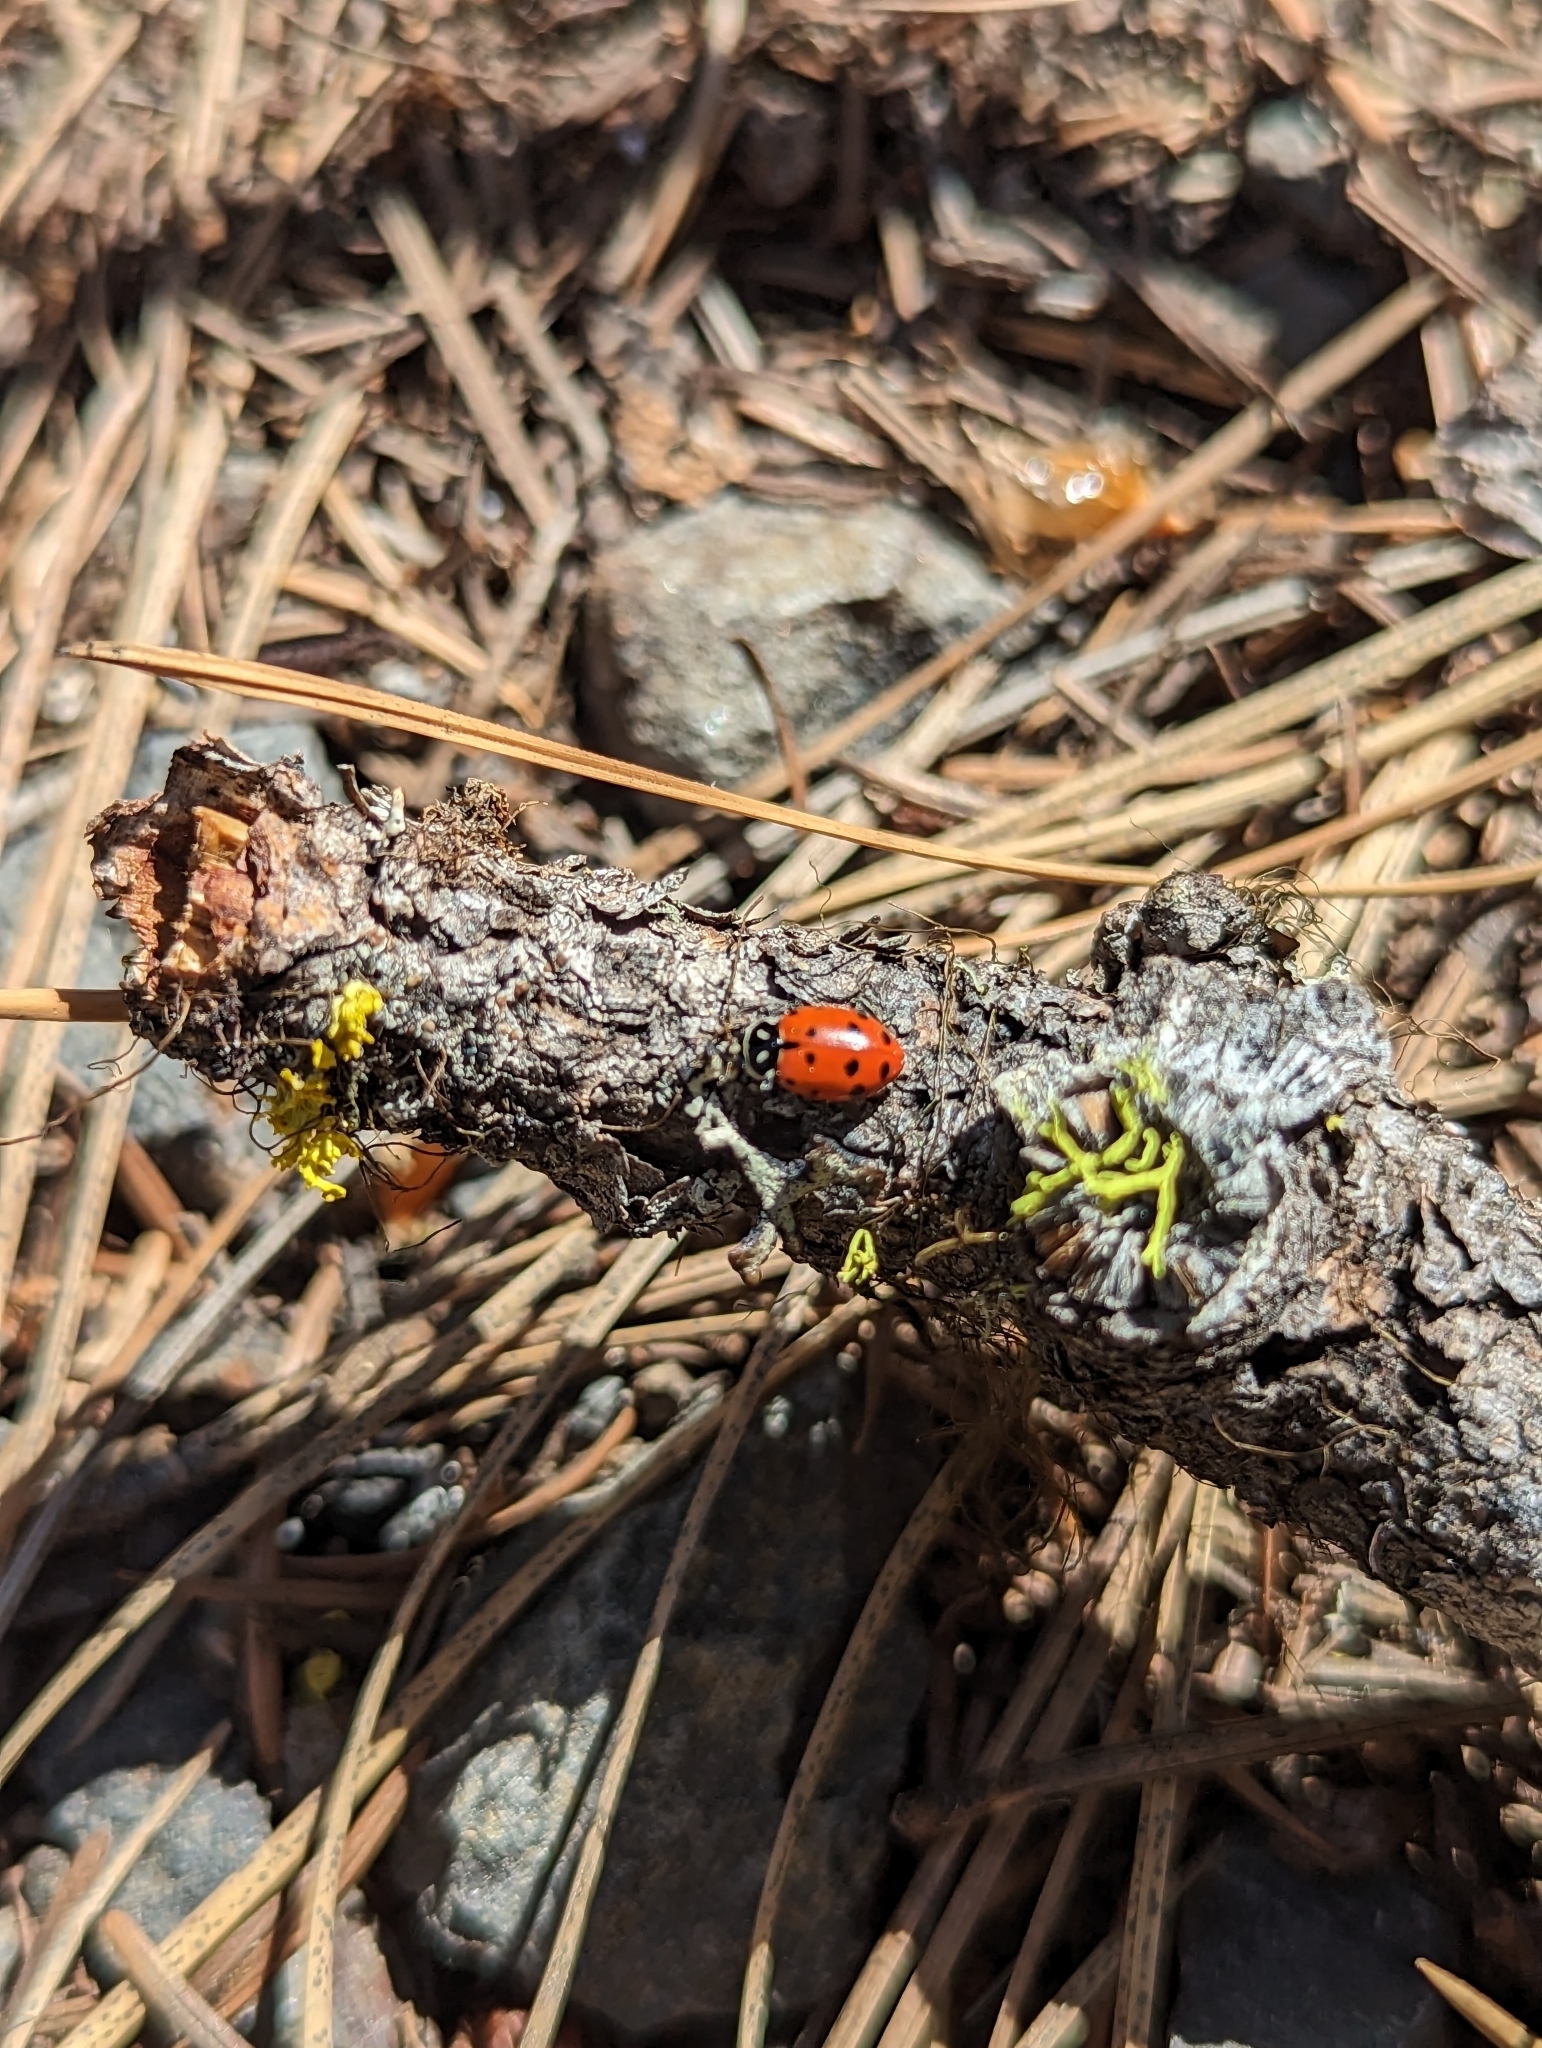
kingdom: Animalia
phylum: Arthropoda
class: Insecta
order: Coleoptera
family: Coccinellidae
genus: Hippodamia
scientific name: Hippodamia convergens
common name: Convergent lady beetle
